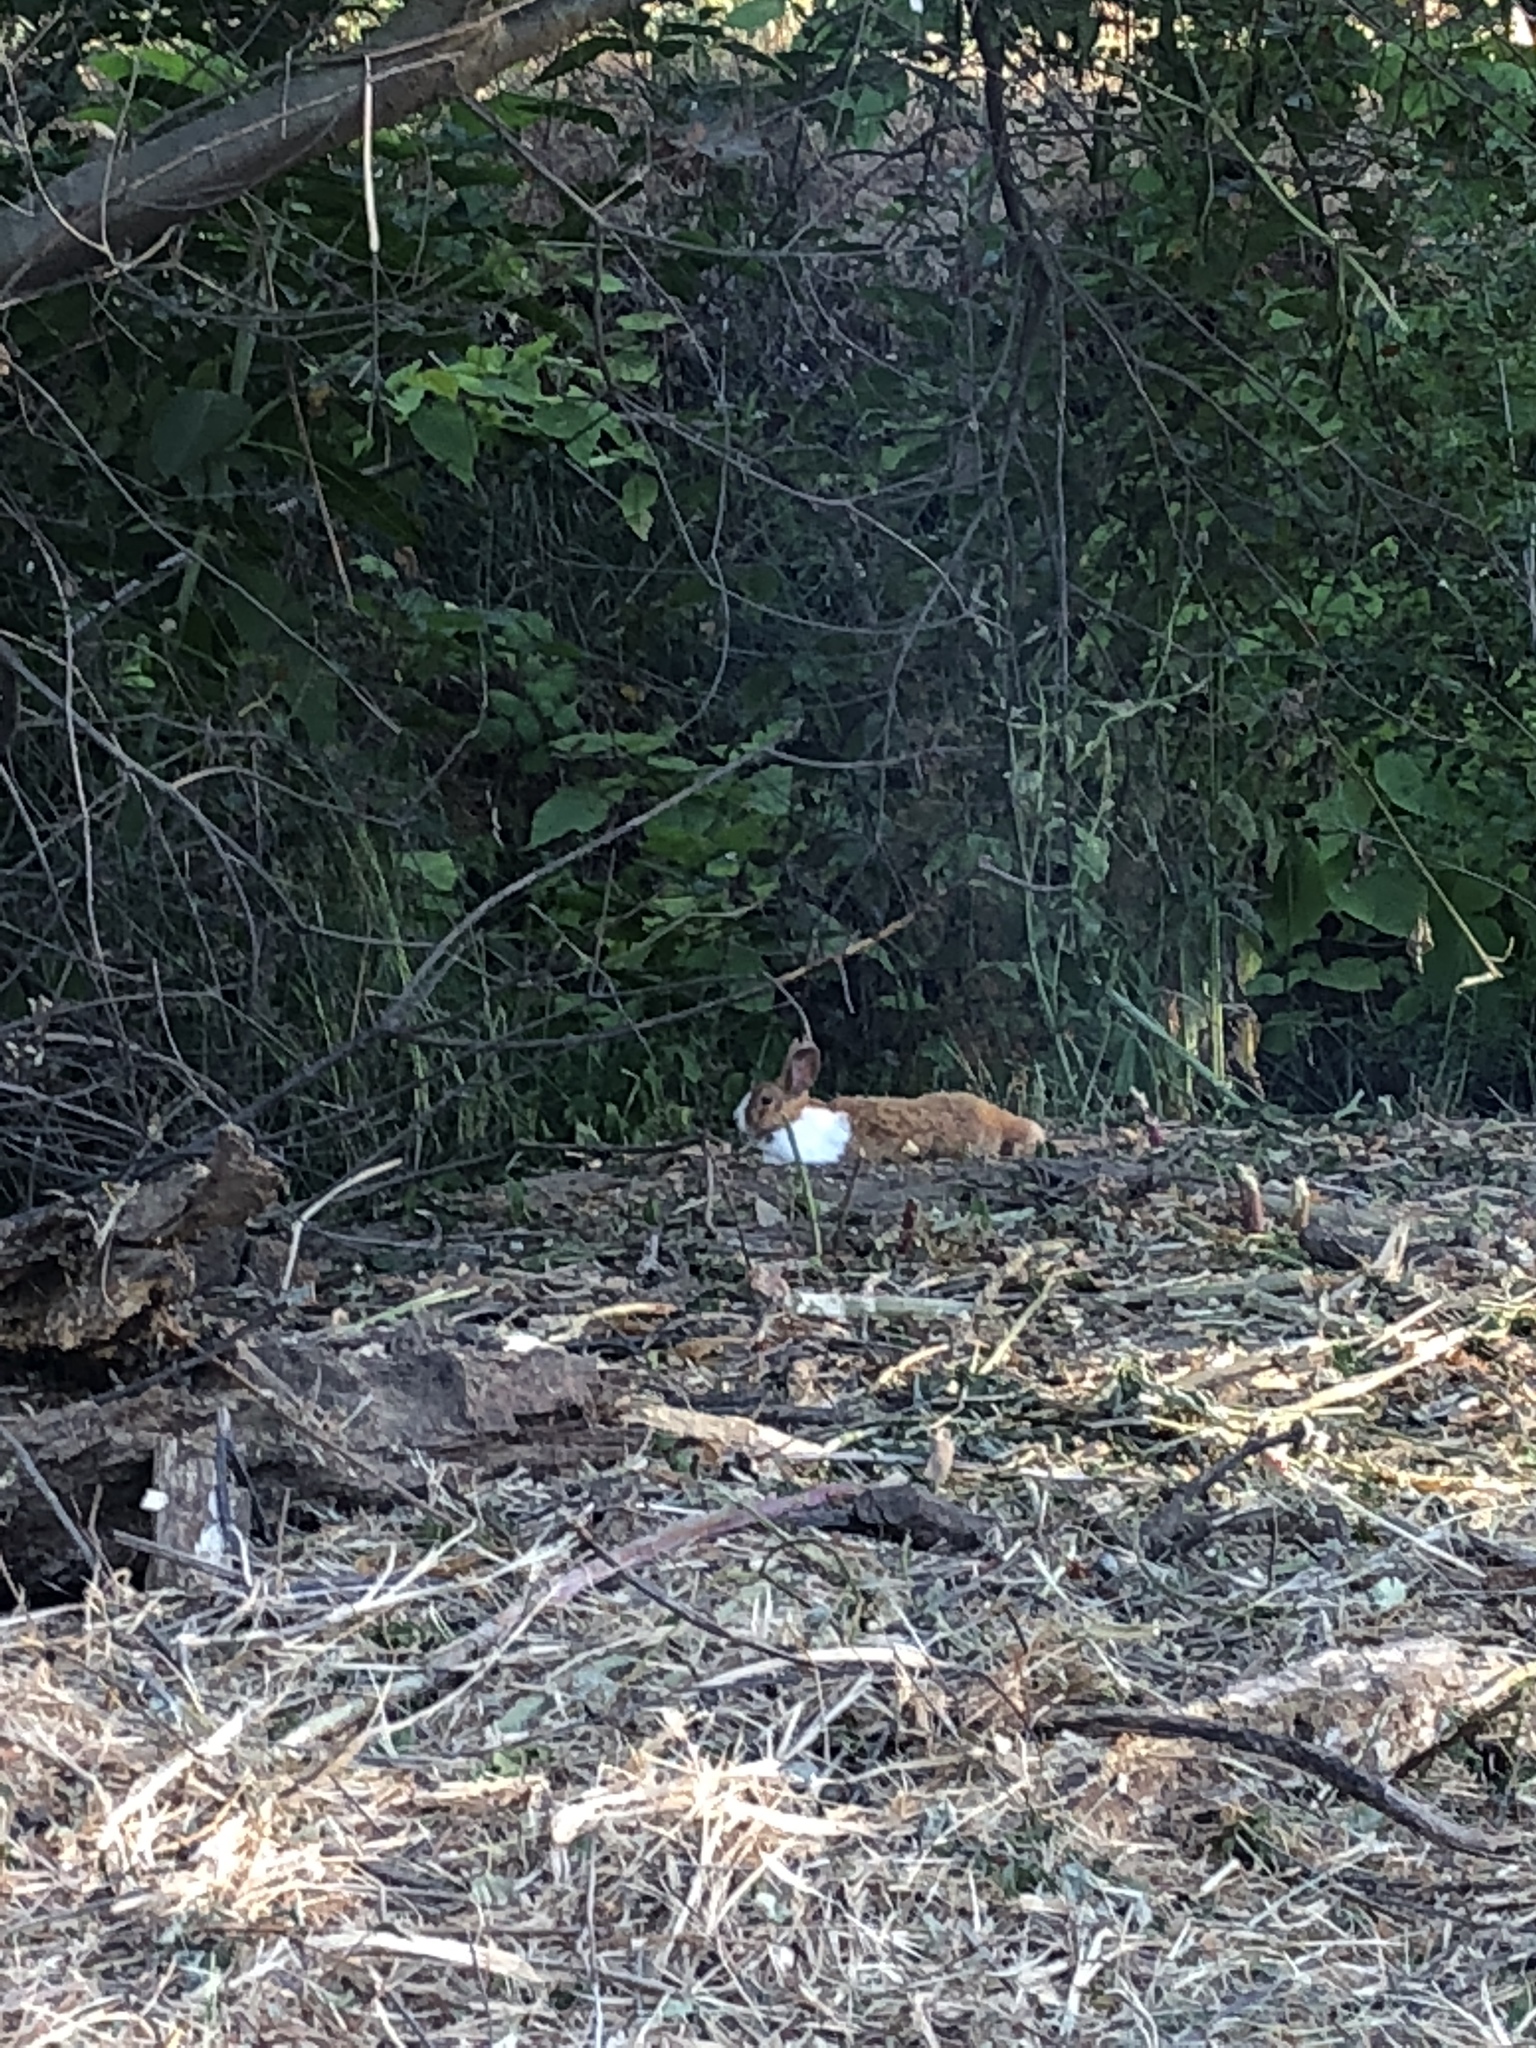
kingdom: Animalia
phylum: Chordata
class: Mammalia
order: Lagomorpha
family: Leporidae
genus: Oryctolagus
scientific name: Oryctolagus cuniculus
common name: European rabbit
